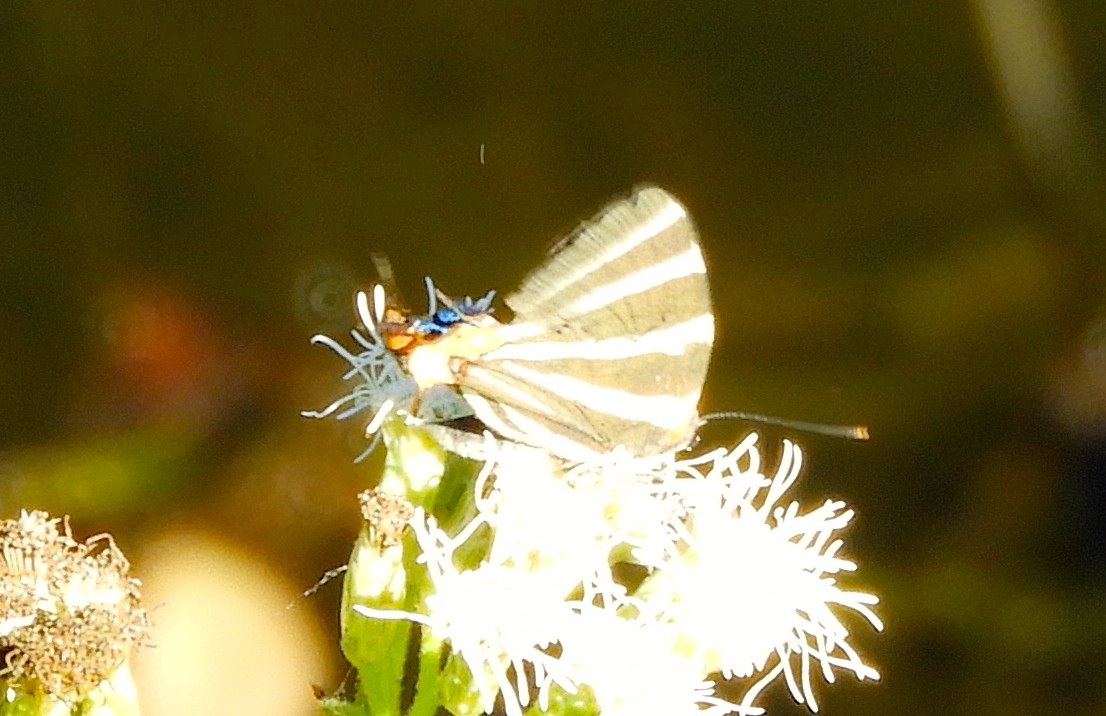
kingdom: Animalia
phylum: Arthropoda
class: Insecta
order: Lepidoptera
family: Lycaenidae
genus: Thecla
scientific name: Thecla bathildis
